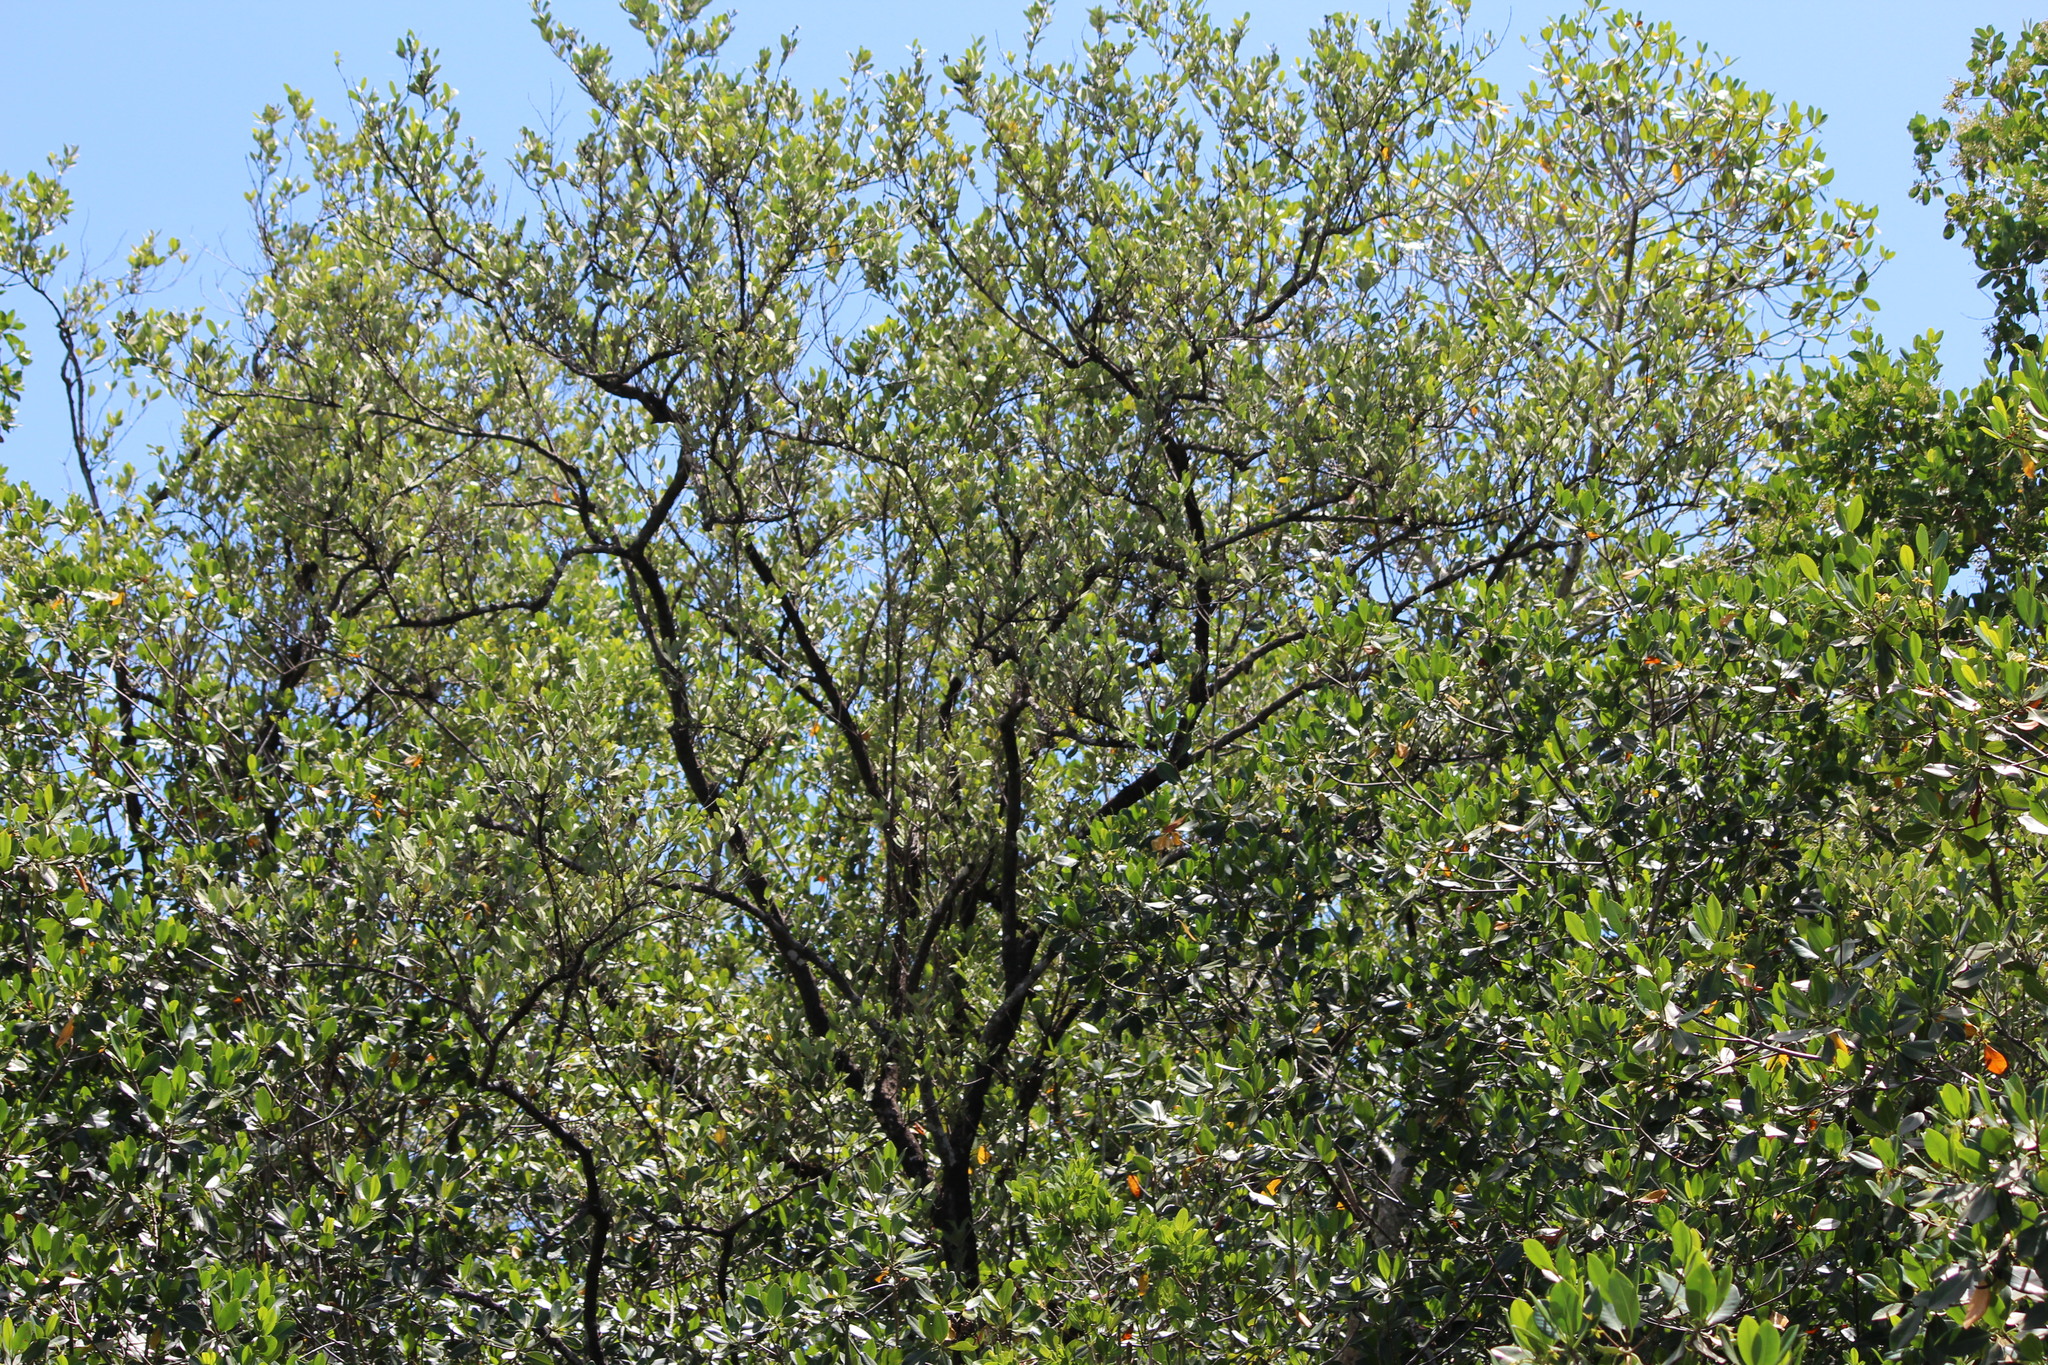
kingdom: Plantae
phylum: Tracheophyta
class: Magnoliopsida
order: Lamiales
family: Acanthaceae
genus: Avicennia
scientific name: Avicennia germinans
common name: Black mangrove
